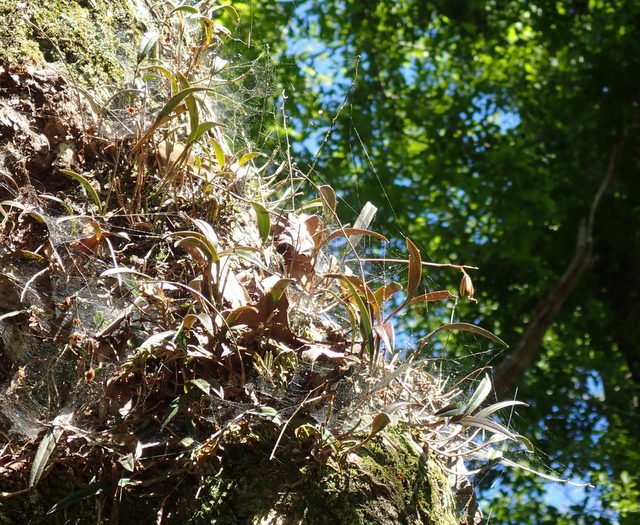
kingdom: Plantae
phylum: Tracheophyta
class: Liliopsida
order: Asparagales
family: Orchidaceae
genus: Epidendrum
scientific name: Epidendrum conopseum
